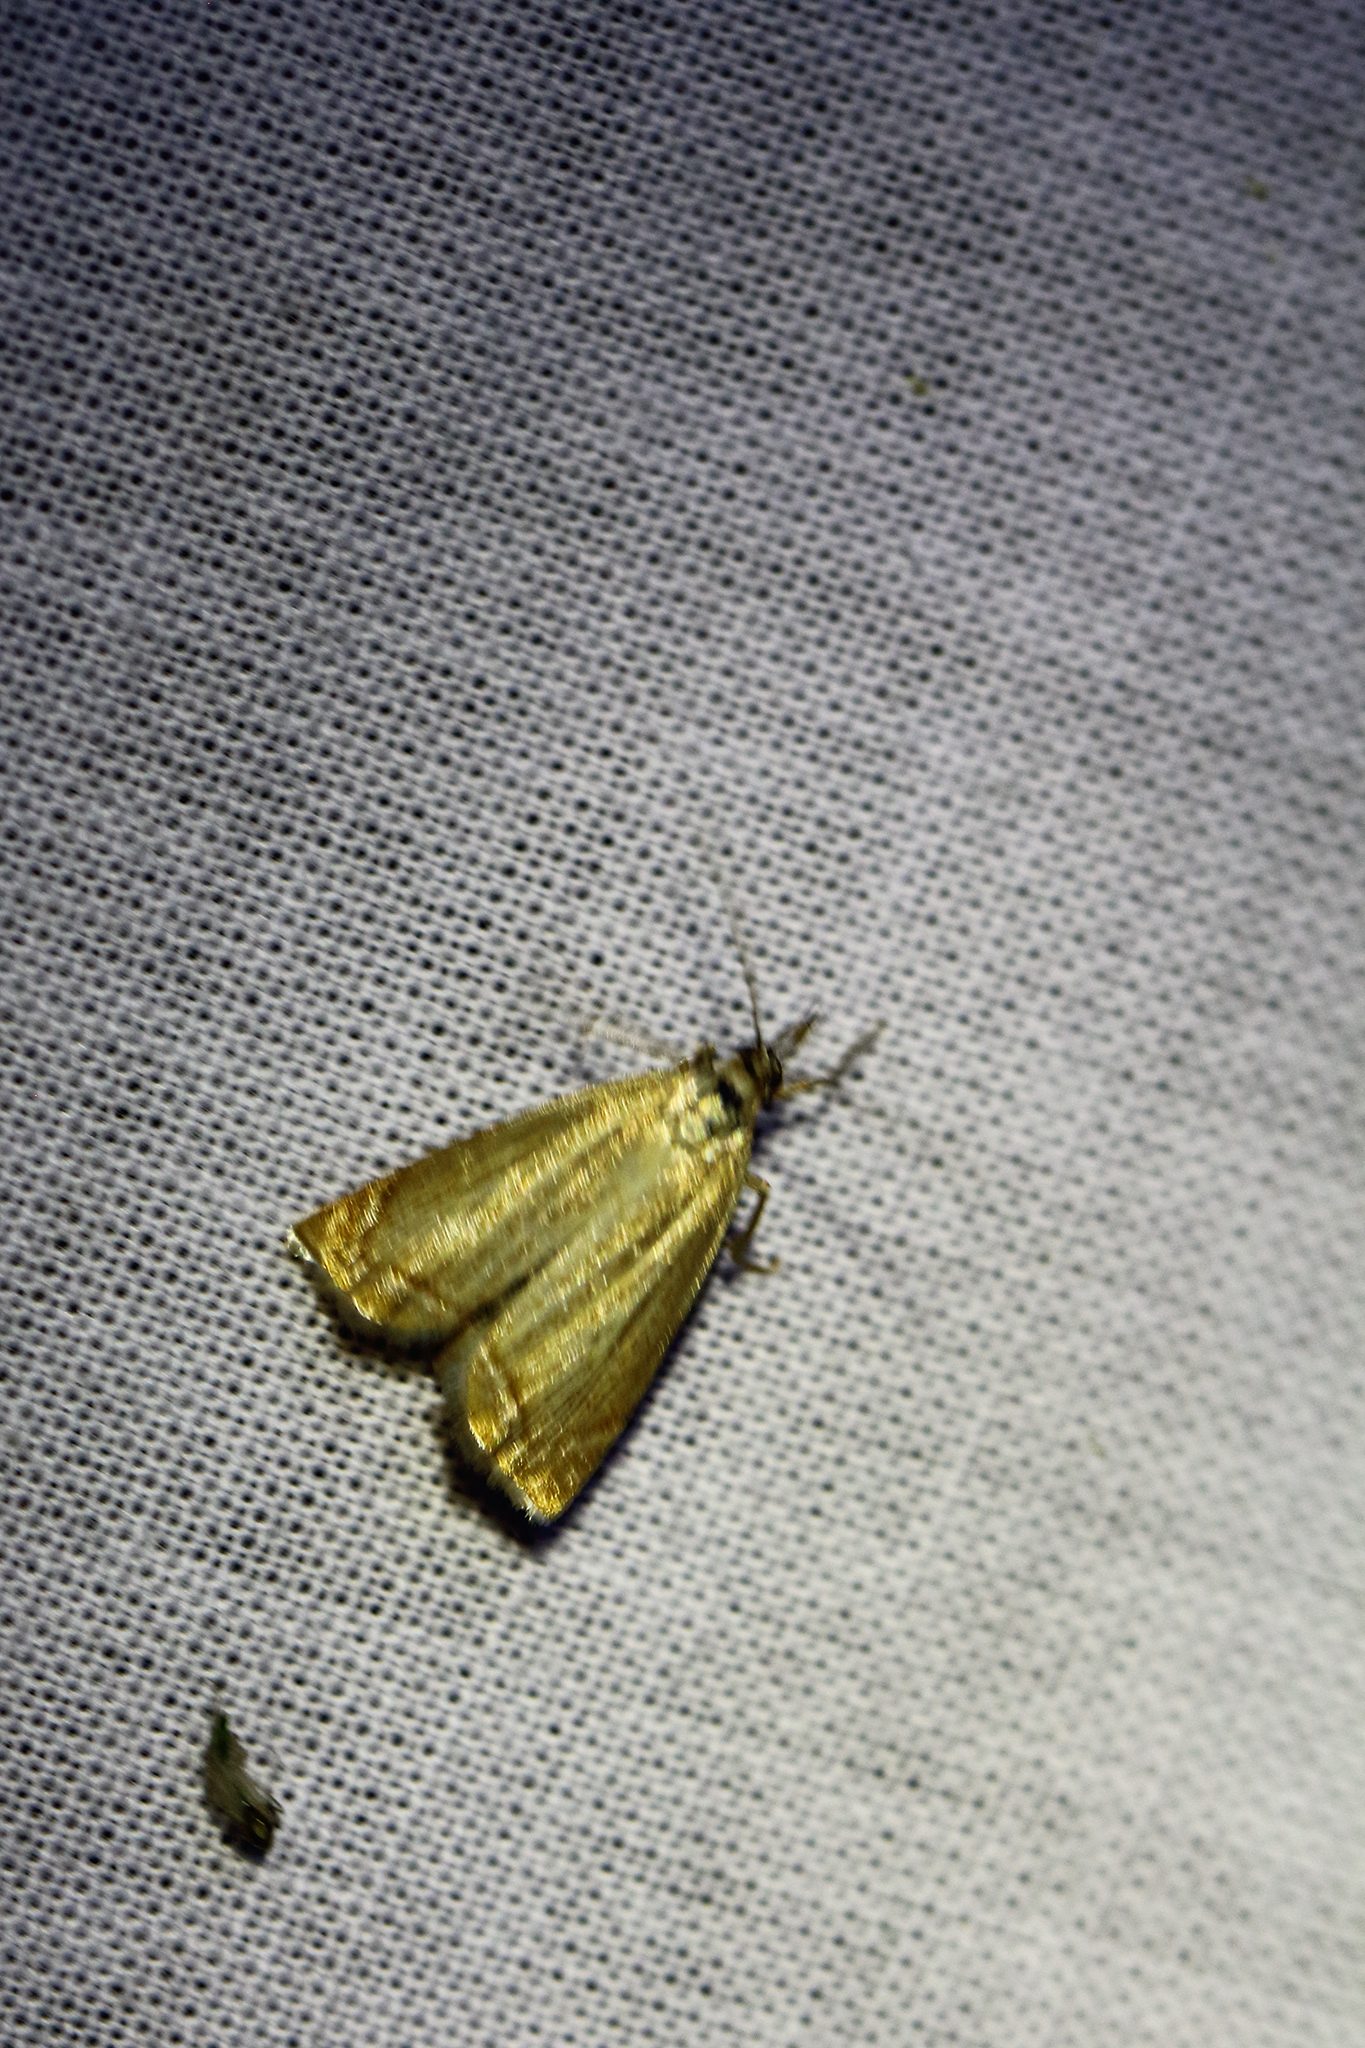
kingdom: Animalia
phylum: Arthropoda
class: Insecta
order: Lepidoptera
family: Crambidae
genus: Chrysoteuchia
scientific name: Chrysoteuchia culmella
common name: Garden grass-veneer
